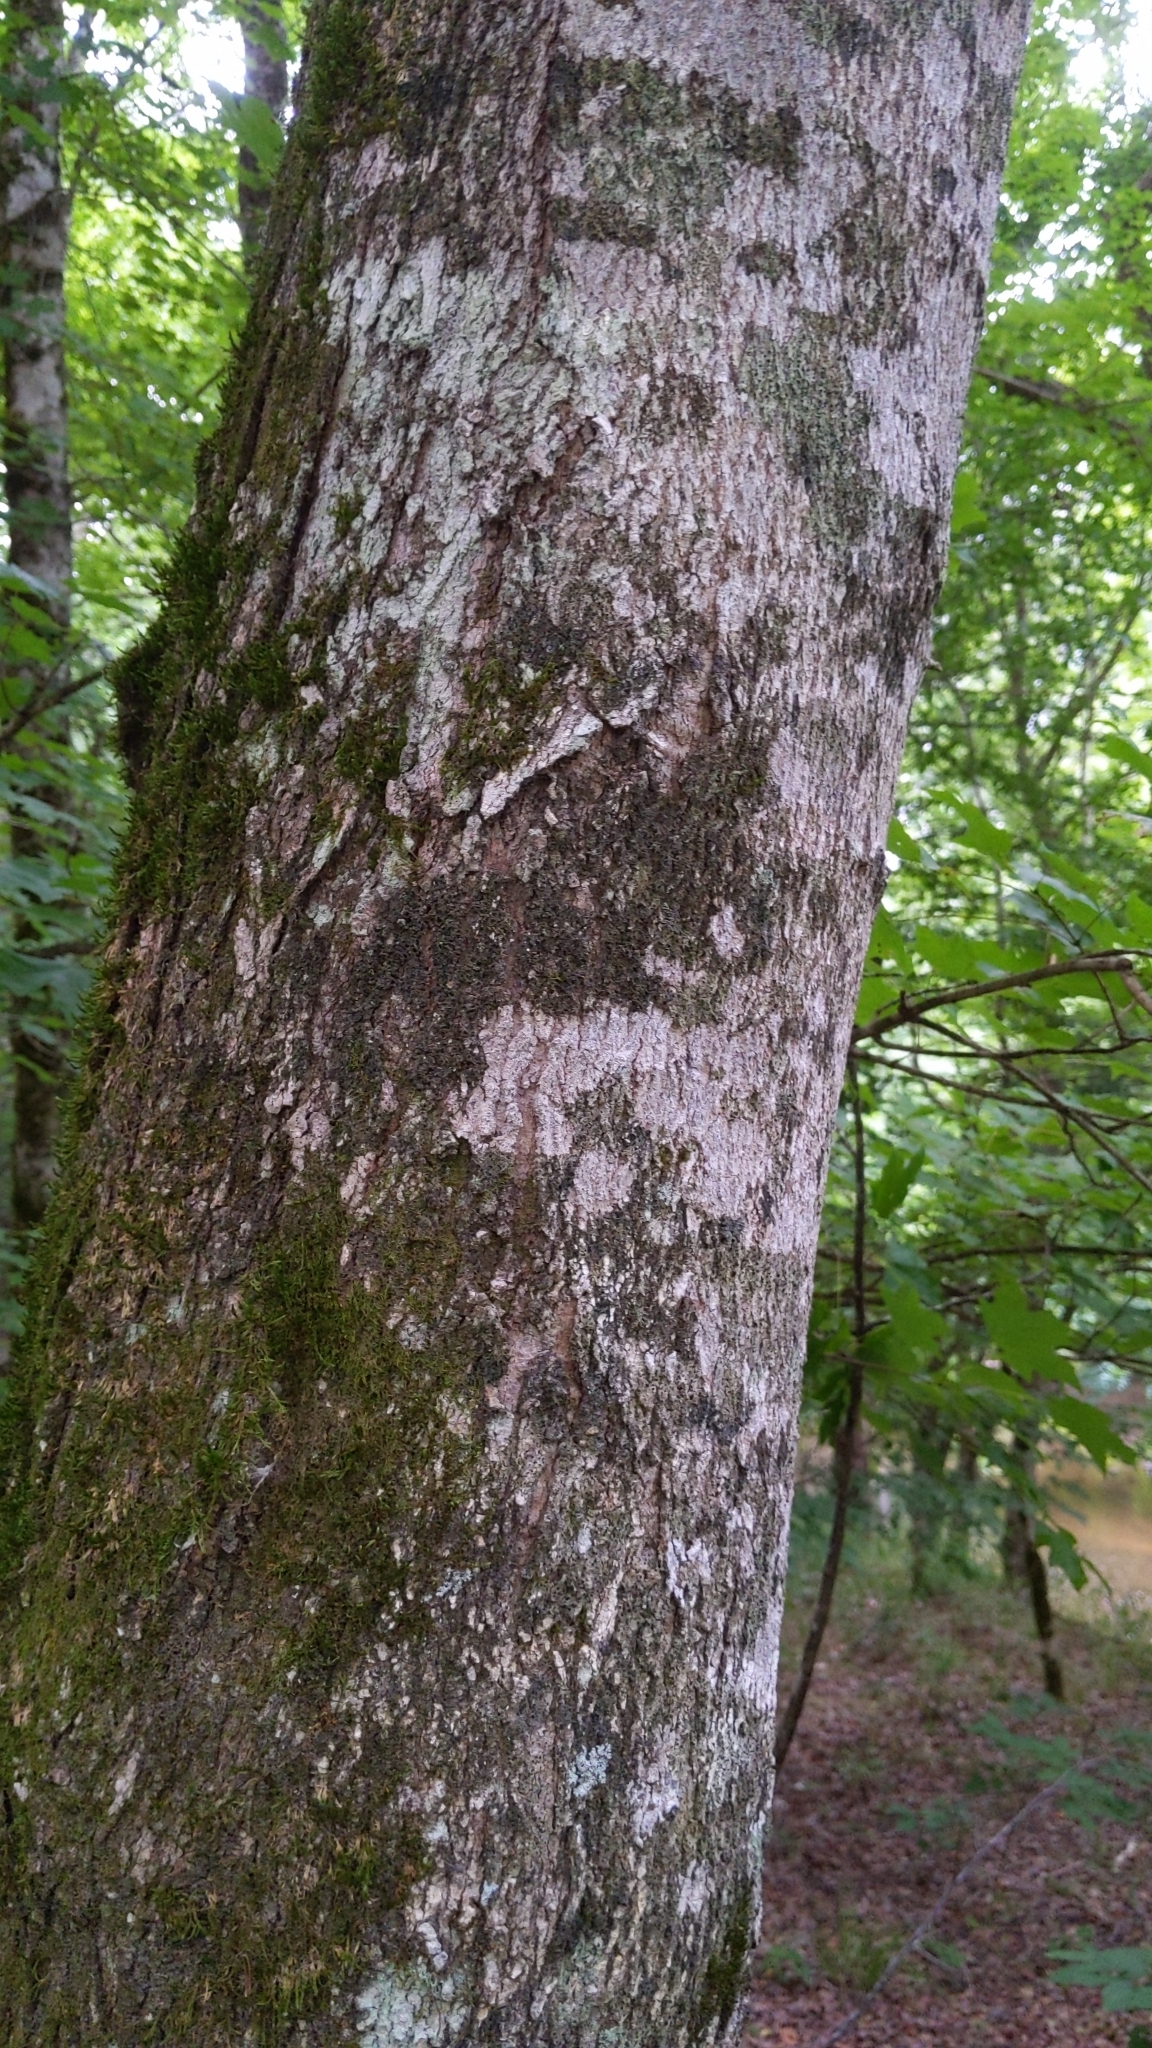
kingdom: Plantae
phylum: Tracheophyta
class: Magnoliopsida
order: Sapindales
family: Sapindaceae
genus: Acer
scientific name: Acer floridanum
